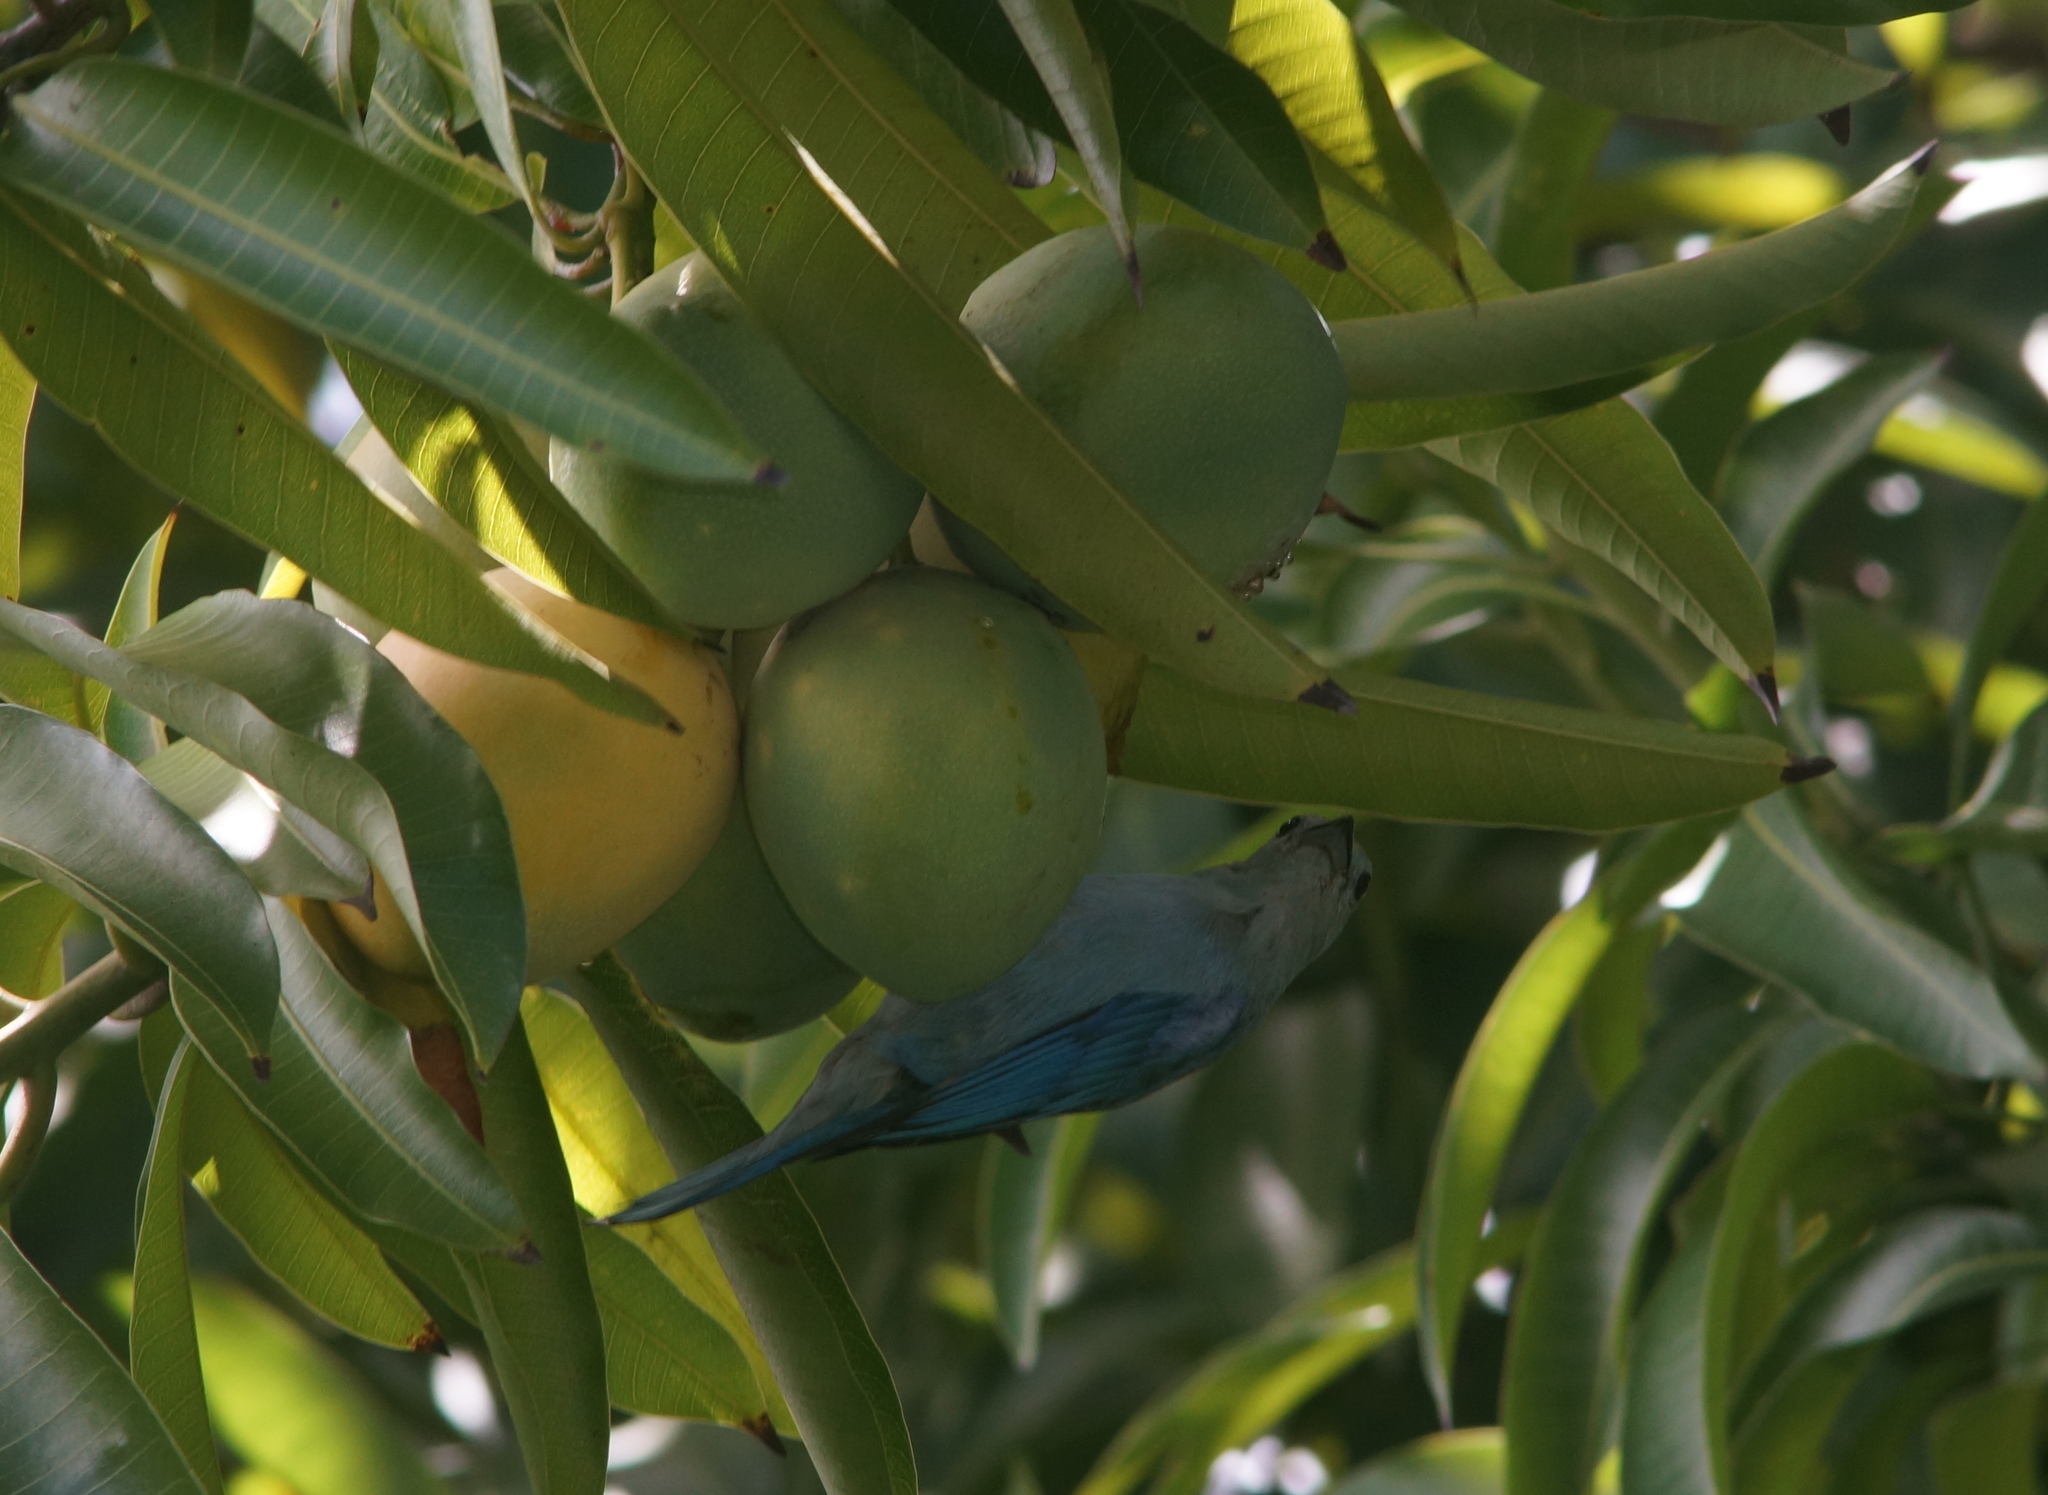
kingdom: Animalia
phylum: Chordata
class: Aves
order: Passeriformes
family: Thraupidae
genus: Thraupis
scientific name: Thraupis episcopus
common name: Blue-grey tanager
